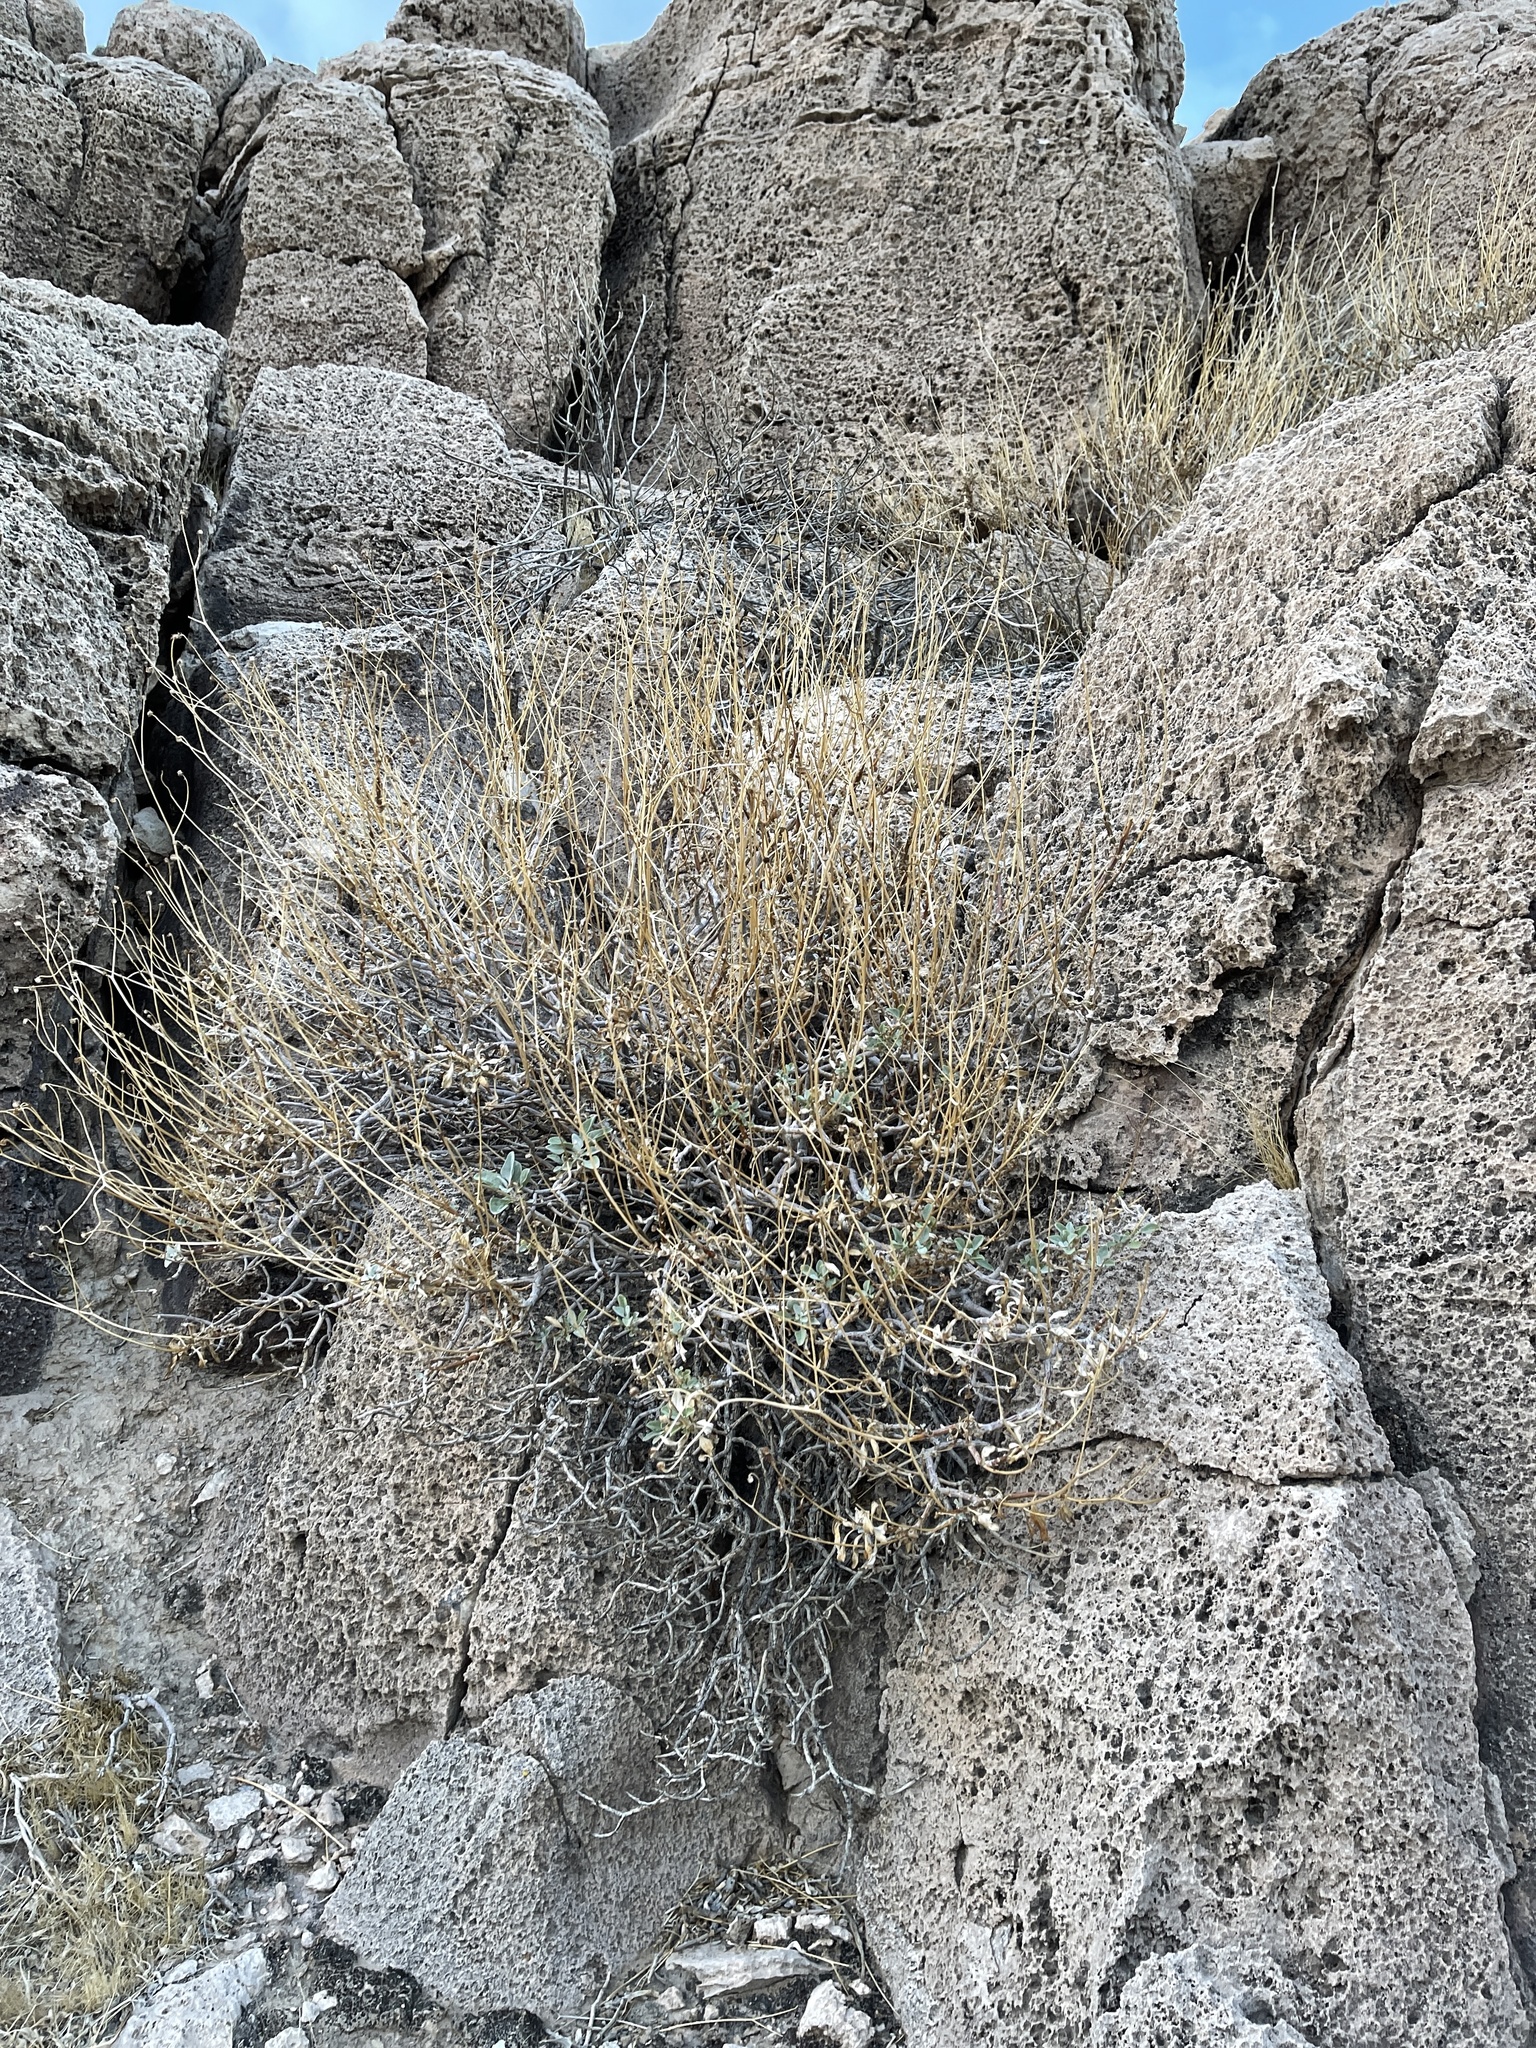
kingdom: Plantae
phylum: Tracheophyta
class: Magnoliopsida
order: Asterales
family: Asteraceae
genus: Encelia
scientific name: Encelia farinosa
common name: Brittlebush
